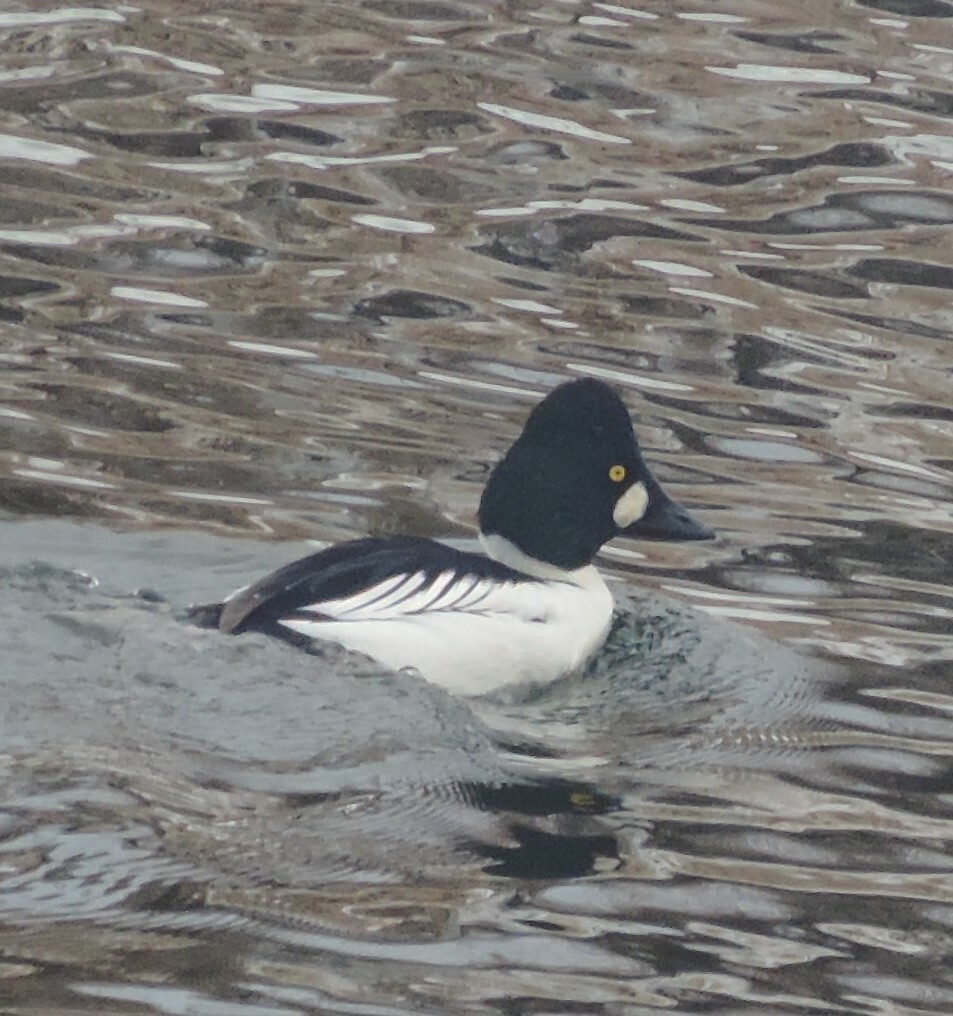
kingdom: Animalia
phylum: Chordata
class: Aves
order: Anseriformes
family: Anatidae
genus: Bucephala
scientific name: Bucephala clangula
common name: Common goldeneye
